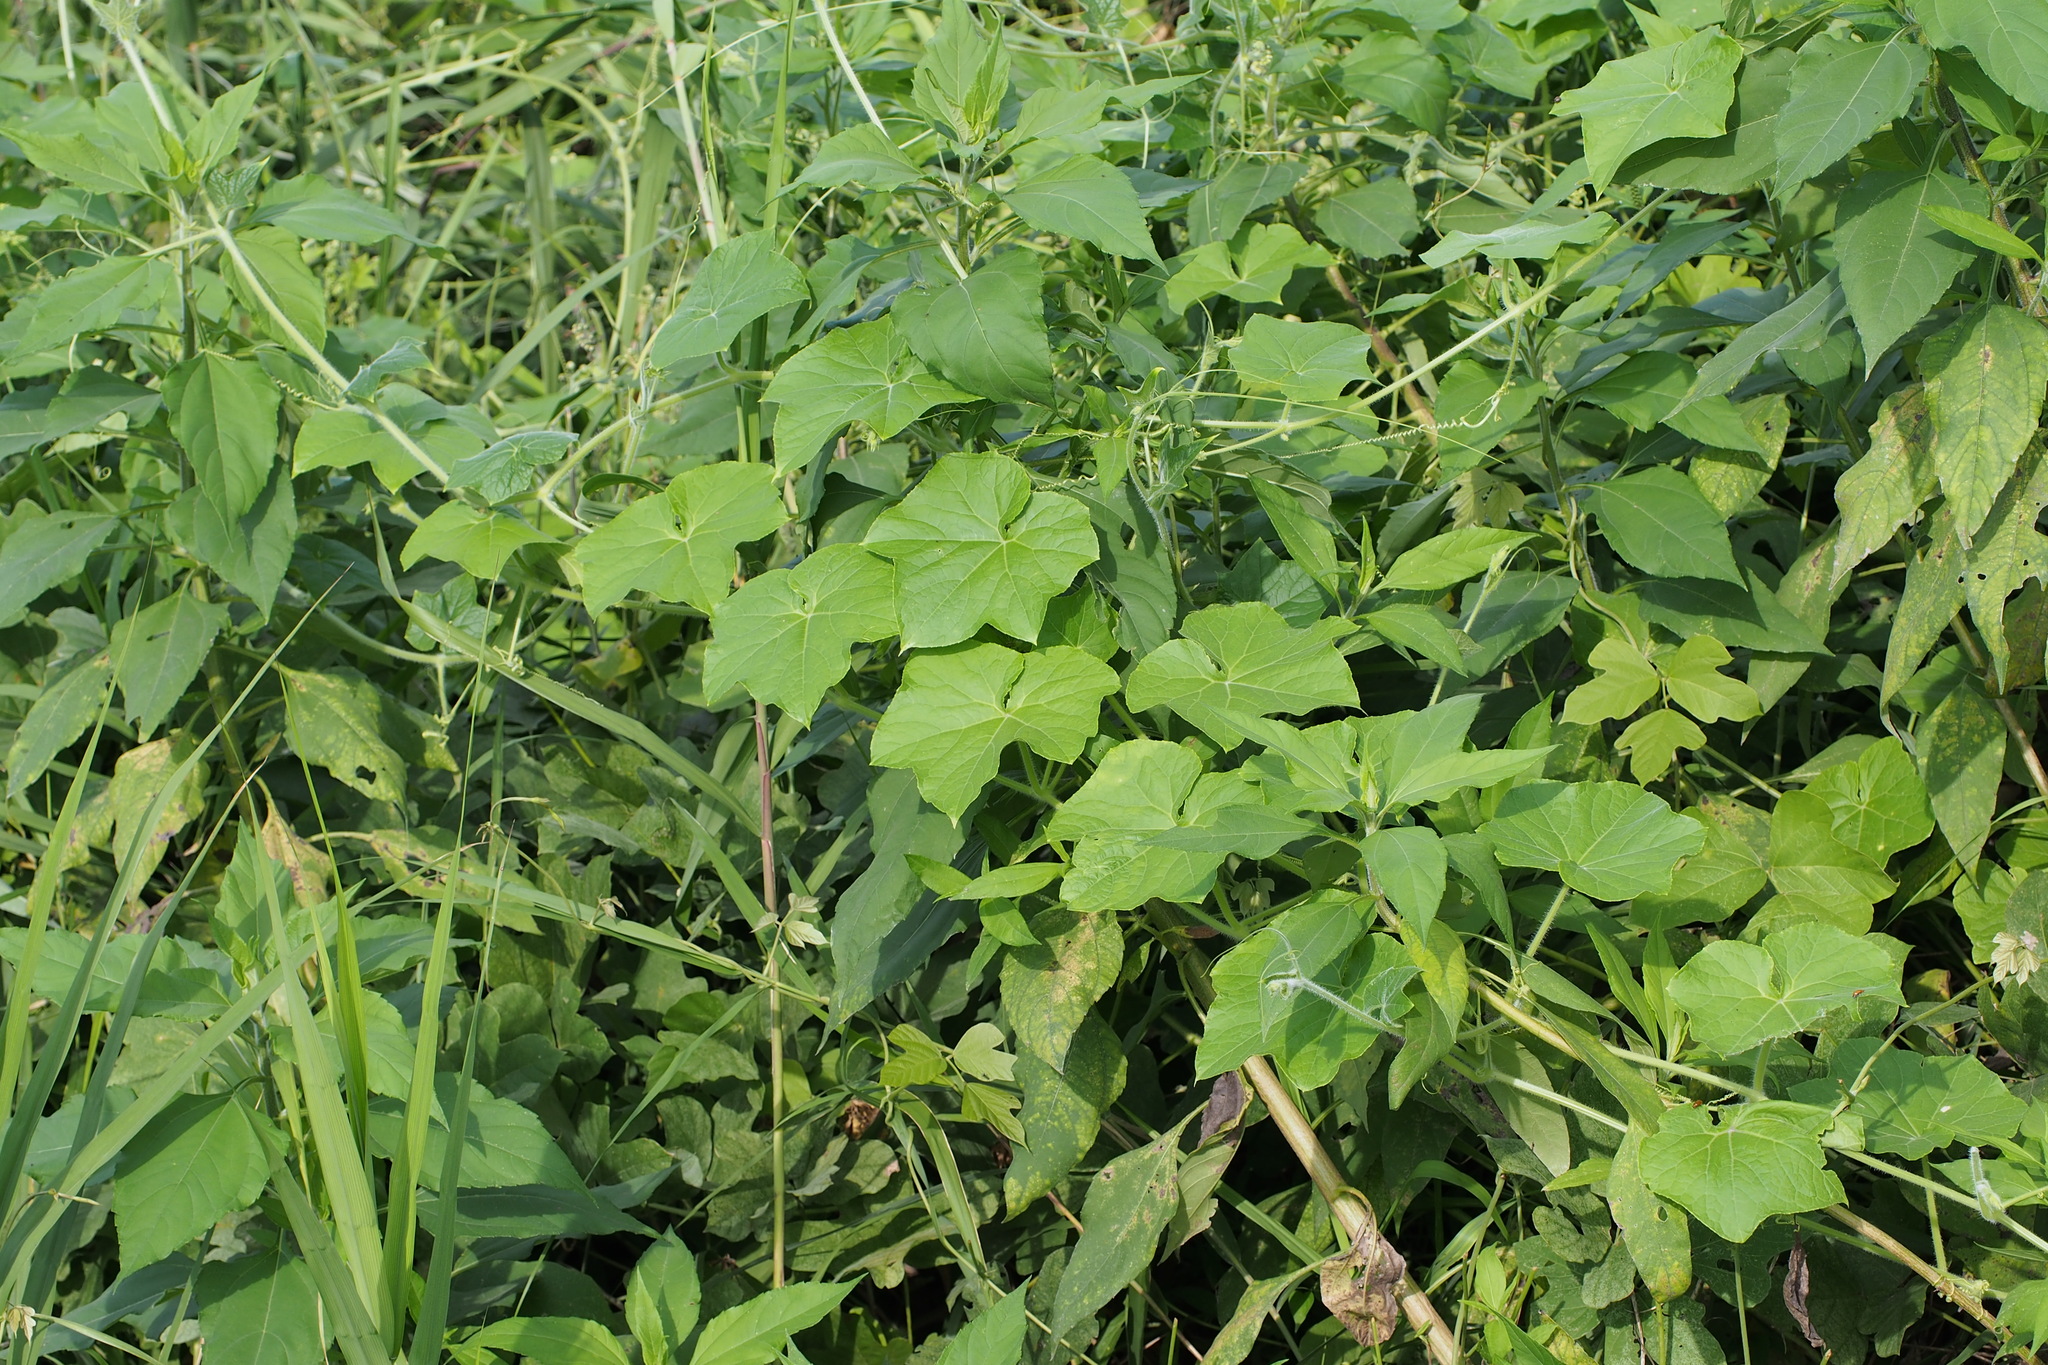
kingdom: Plantae
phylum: Tracheophyta
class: Magnoliopsida
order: Cucurbitales
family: Cucurbitaceae
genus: Sicyos
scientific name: Sicyos angulatus
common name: Angled burr cucumber
